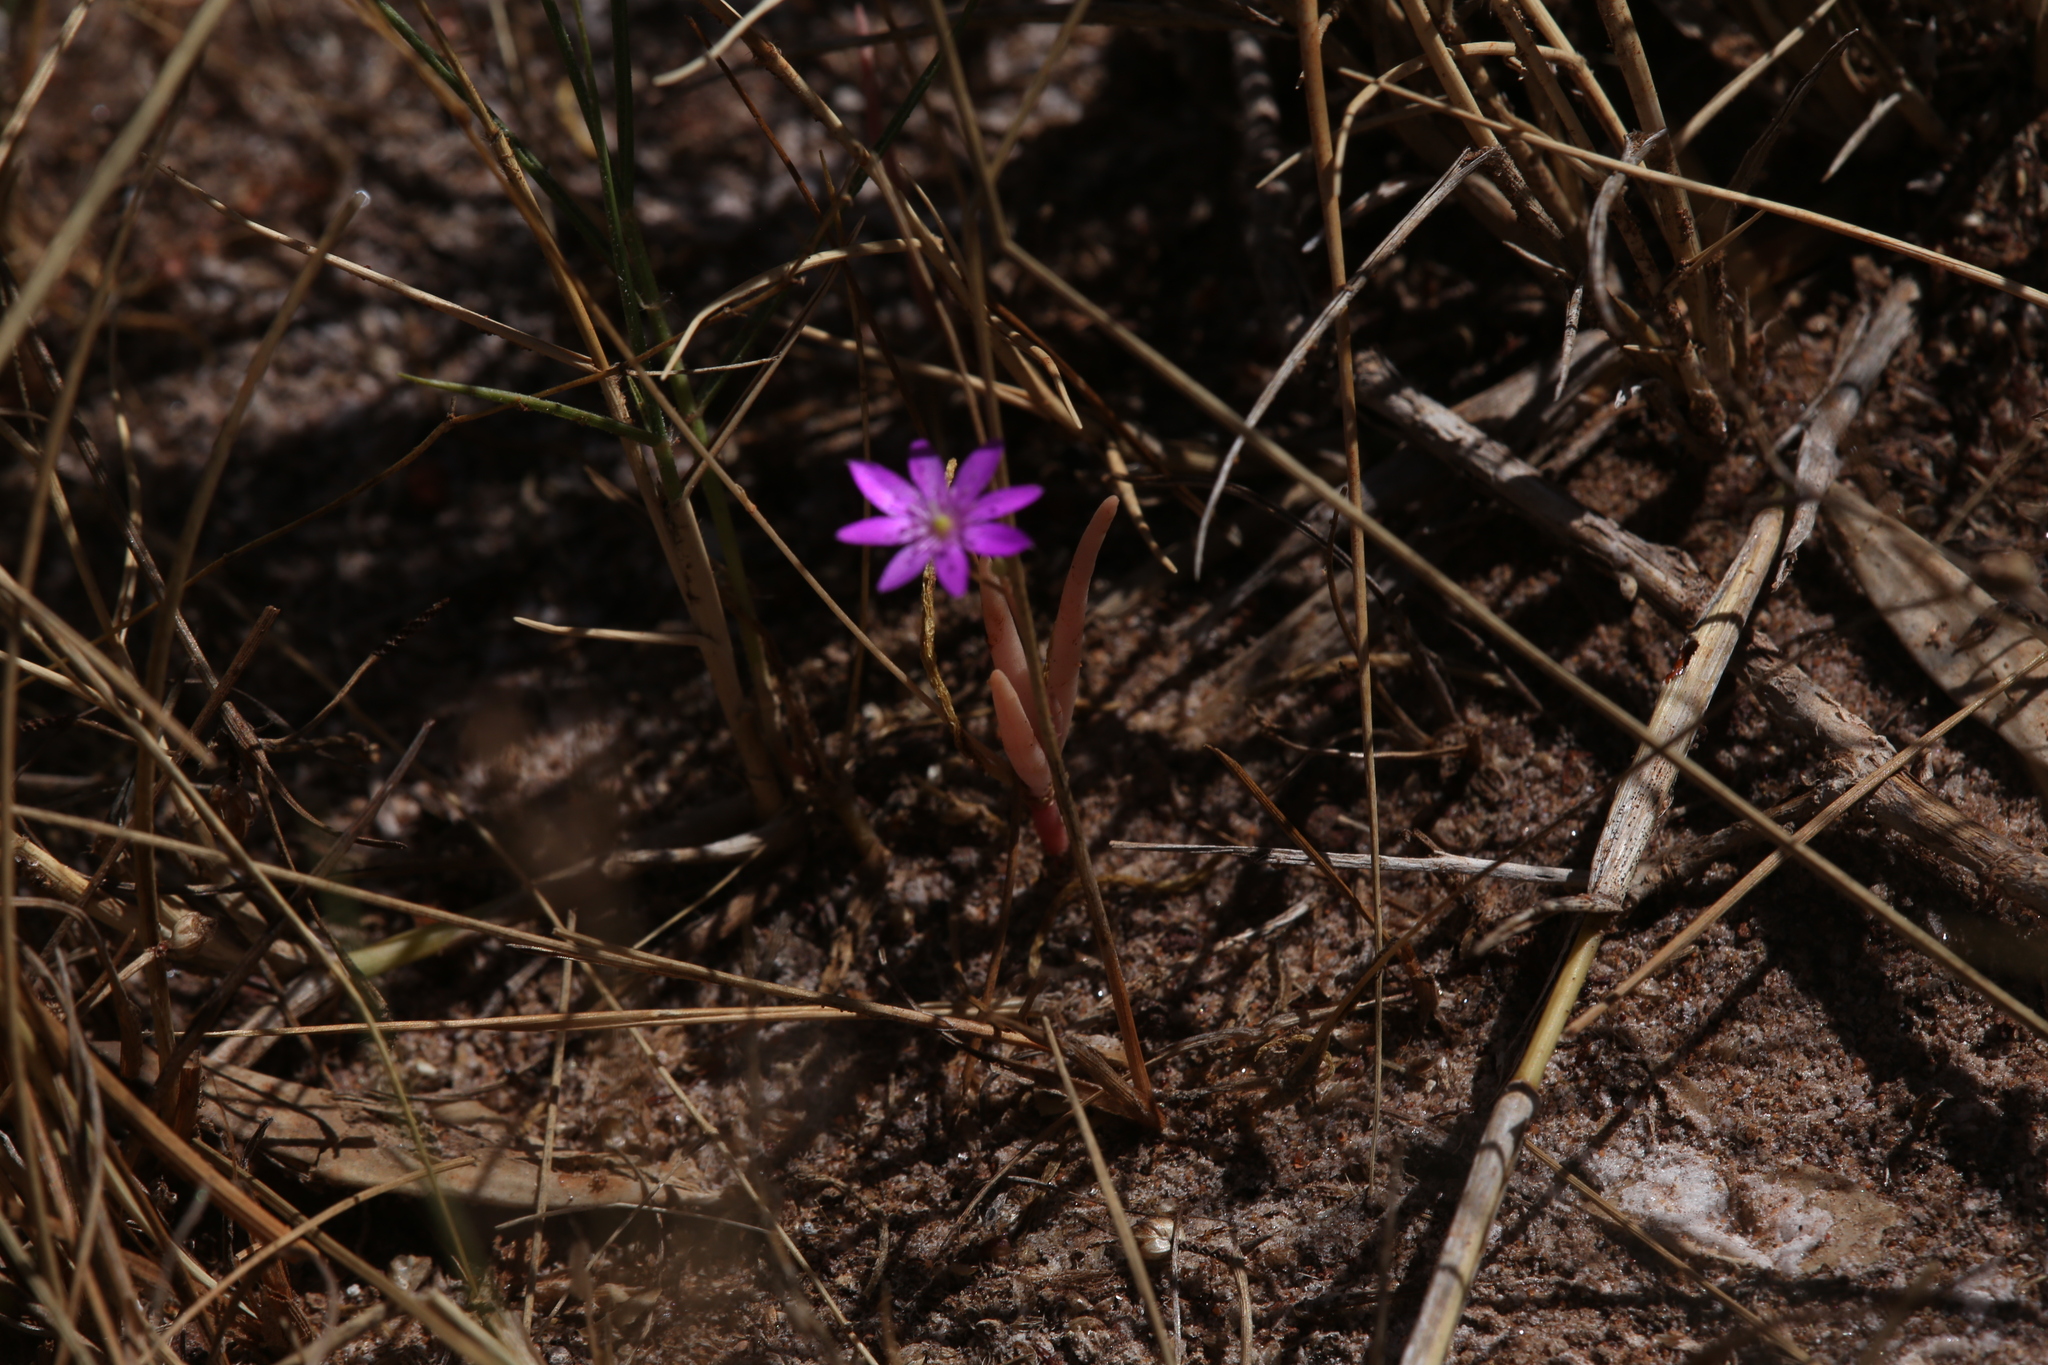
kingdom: Plantae
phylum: Tracheophyta
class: Magnoliopsida
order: Caryophyllales
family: Montiaceae
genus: Rumicastrum
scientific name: Rumicastrum tepperianum
